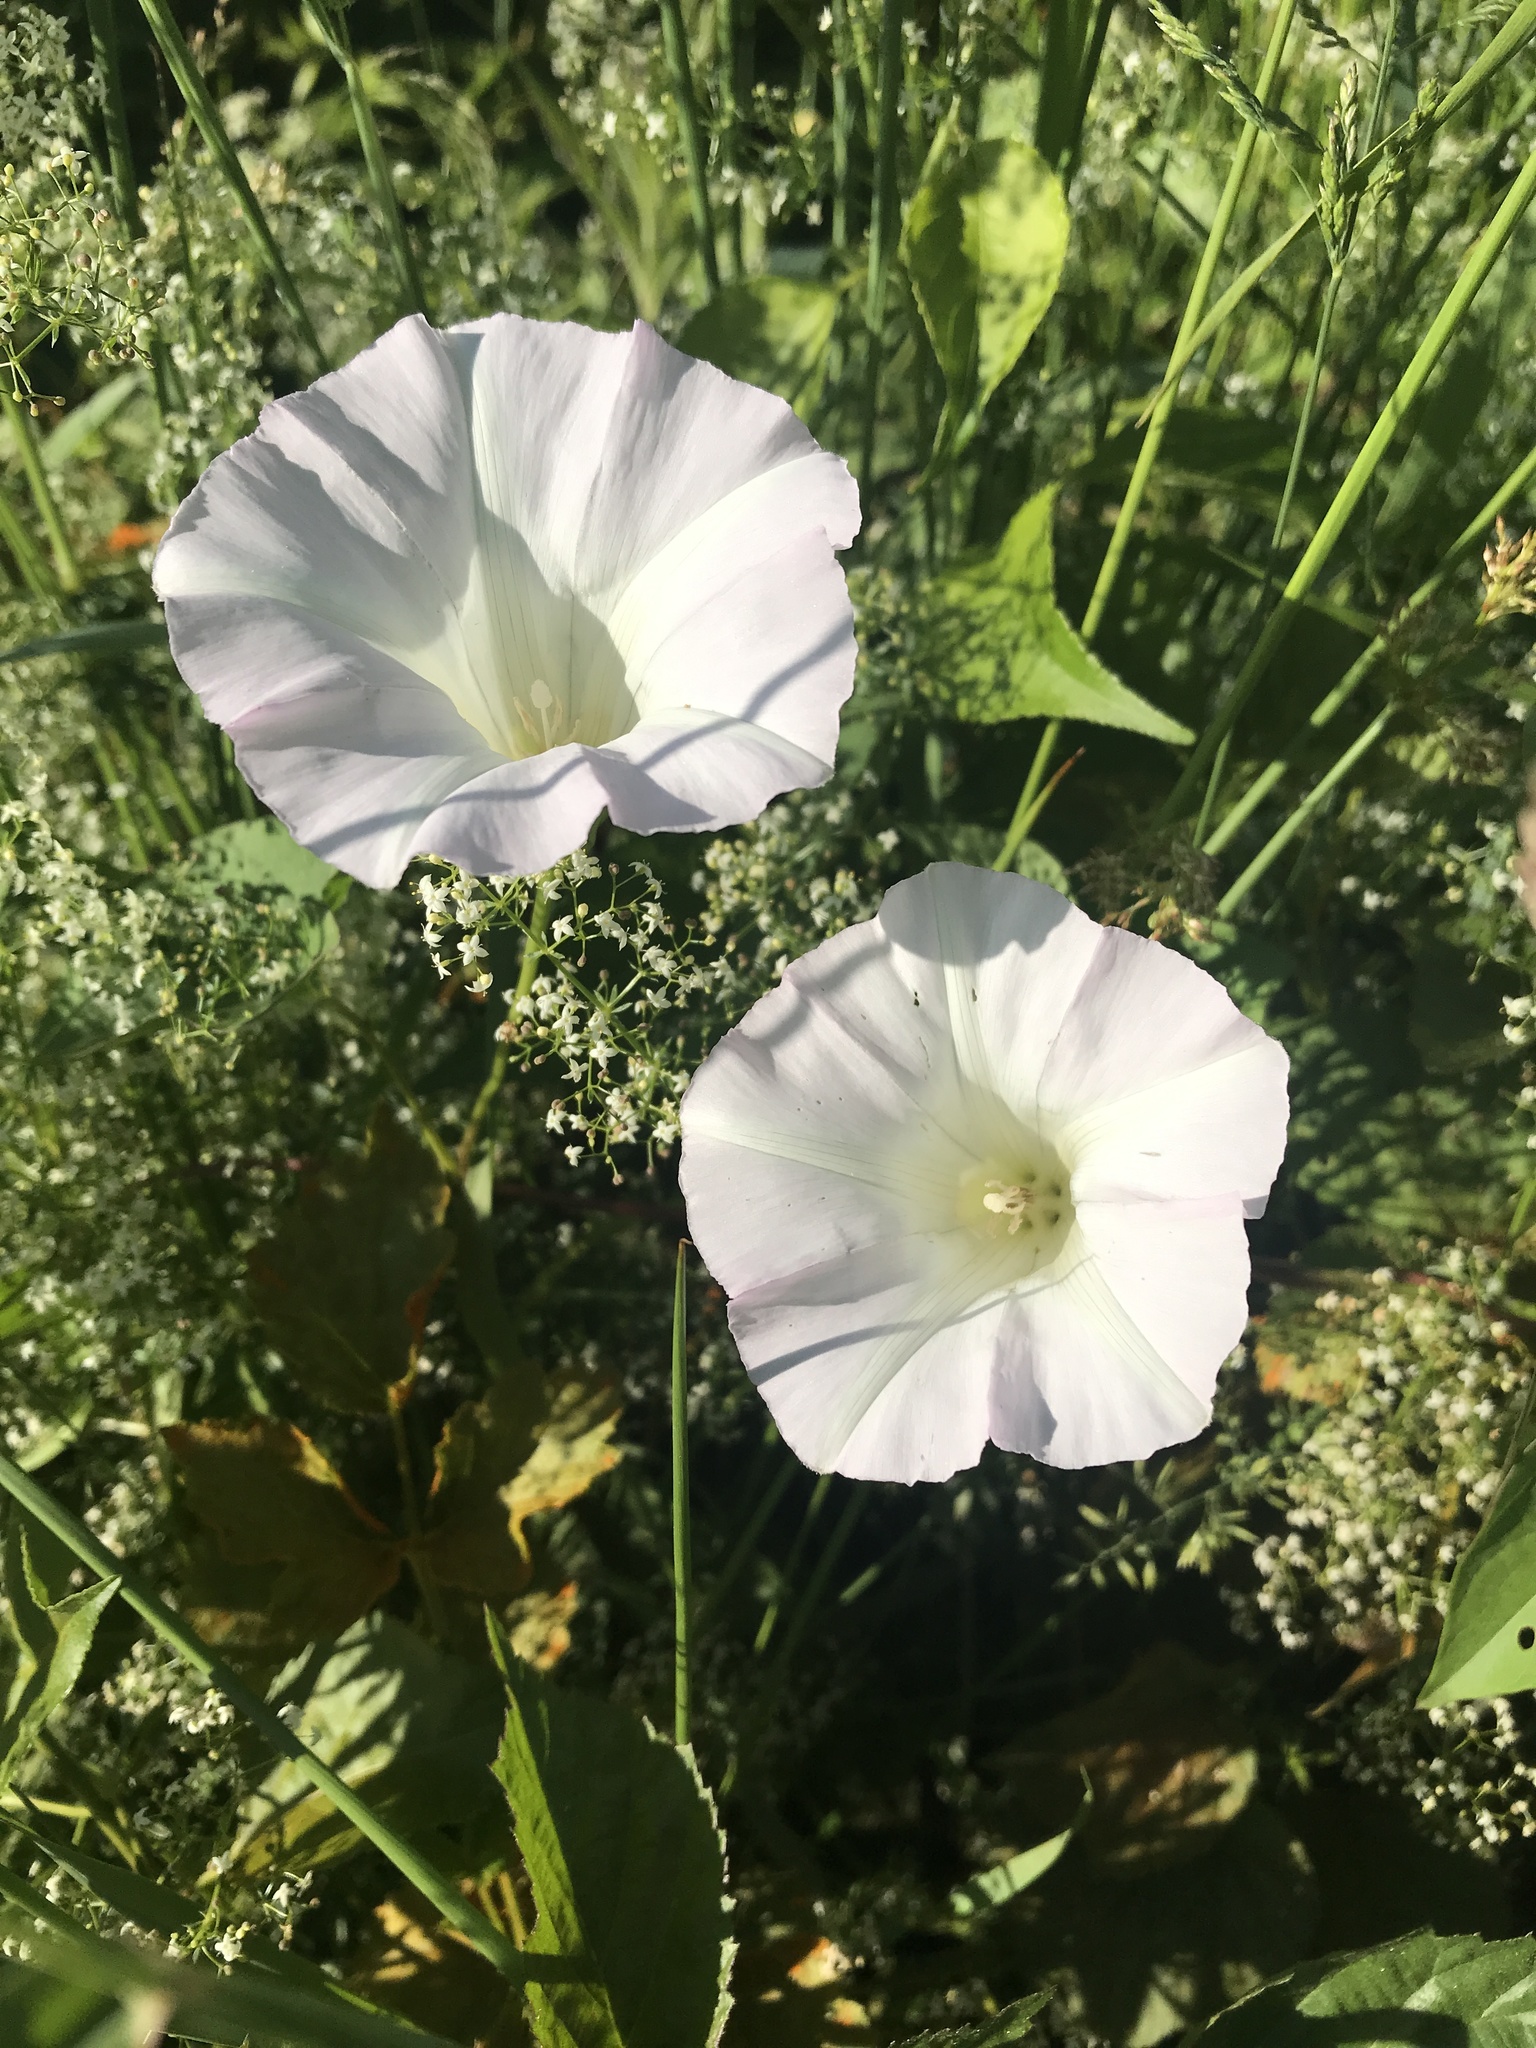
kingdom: Plantae
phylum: Tracheophyta
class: Magnoliopsida
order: Solanales
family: Convolvulaceae
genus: Calystegia
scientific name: Calystegia sepium
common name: Hedge bindweed
